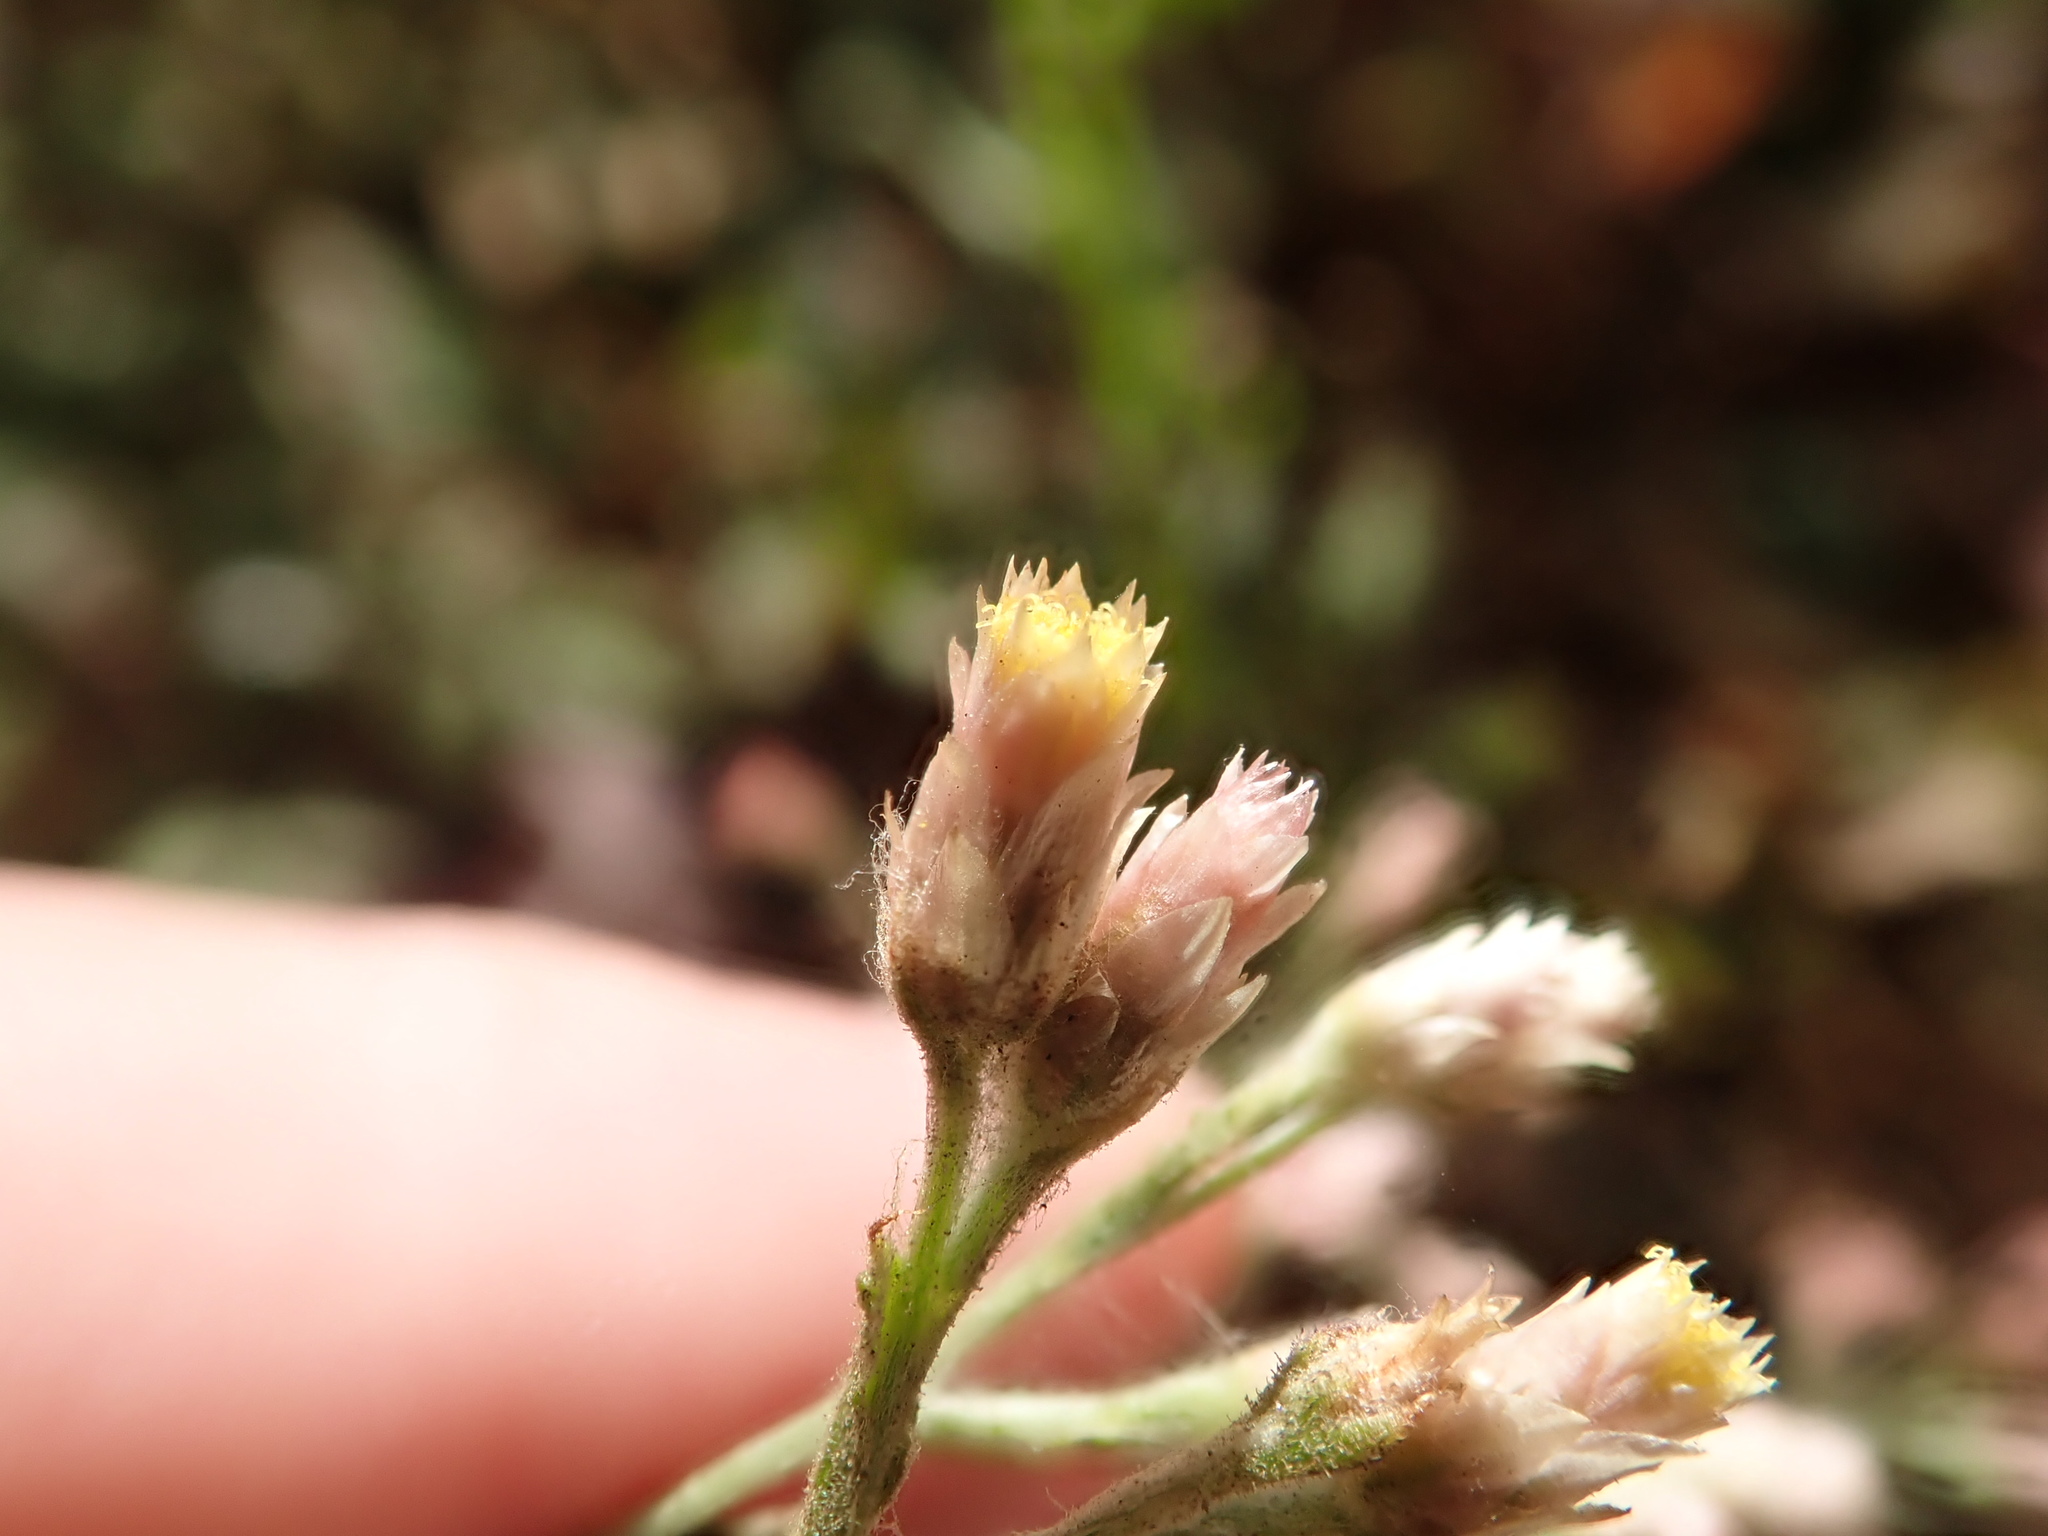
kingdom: Plantae
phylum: Tracheophyta
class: Magnoliopsida
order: Asterales
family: Asteraceae
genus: Pseudognaphalium
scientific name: Pseudognaphalium ramosissimum
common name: Pink rabbit-tobacco
